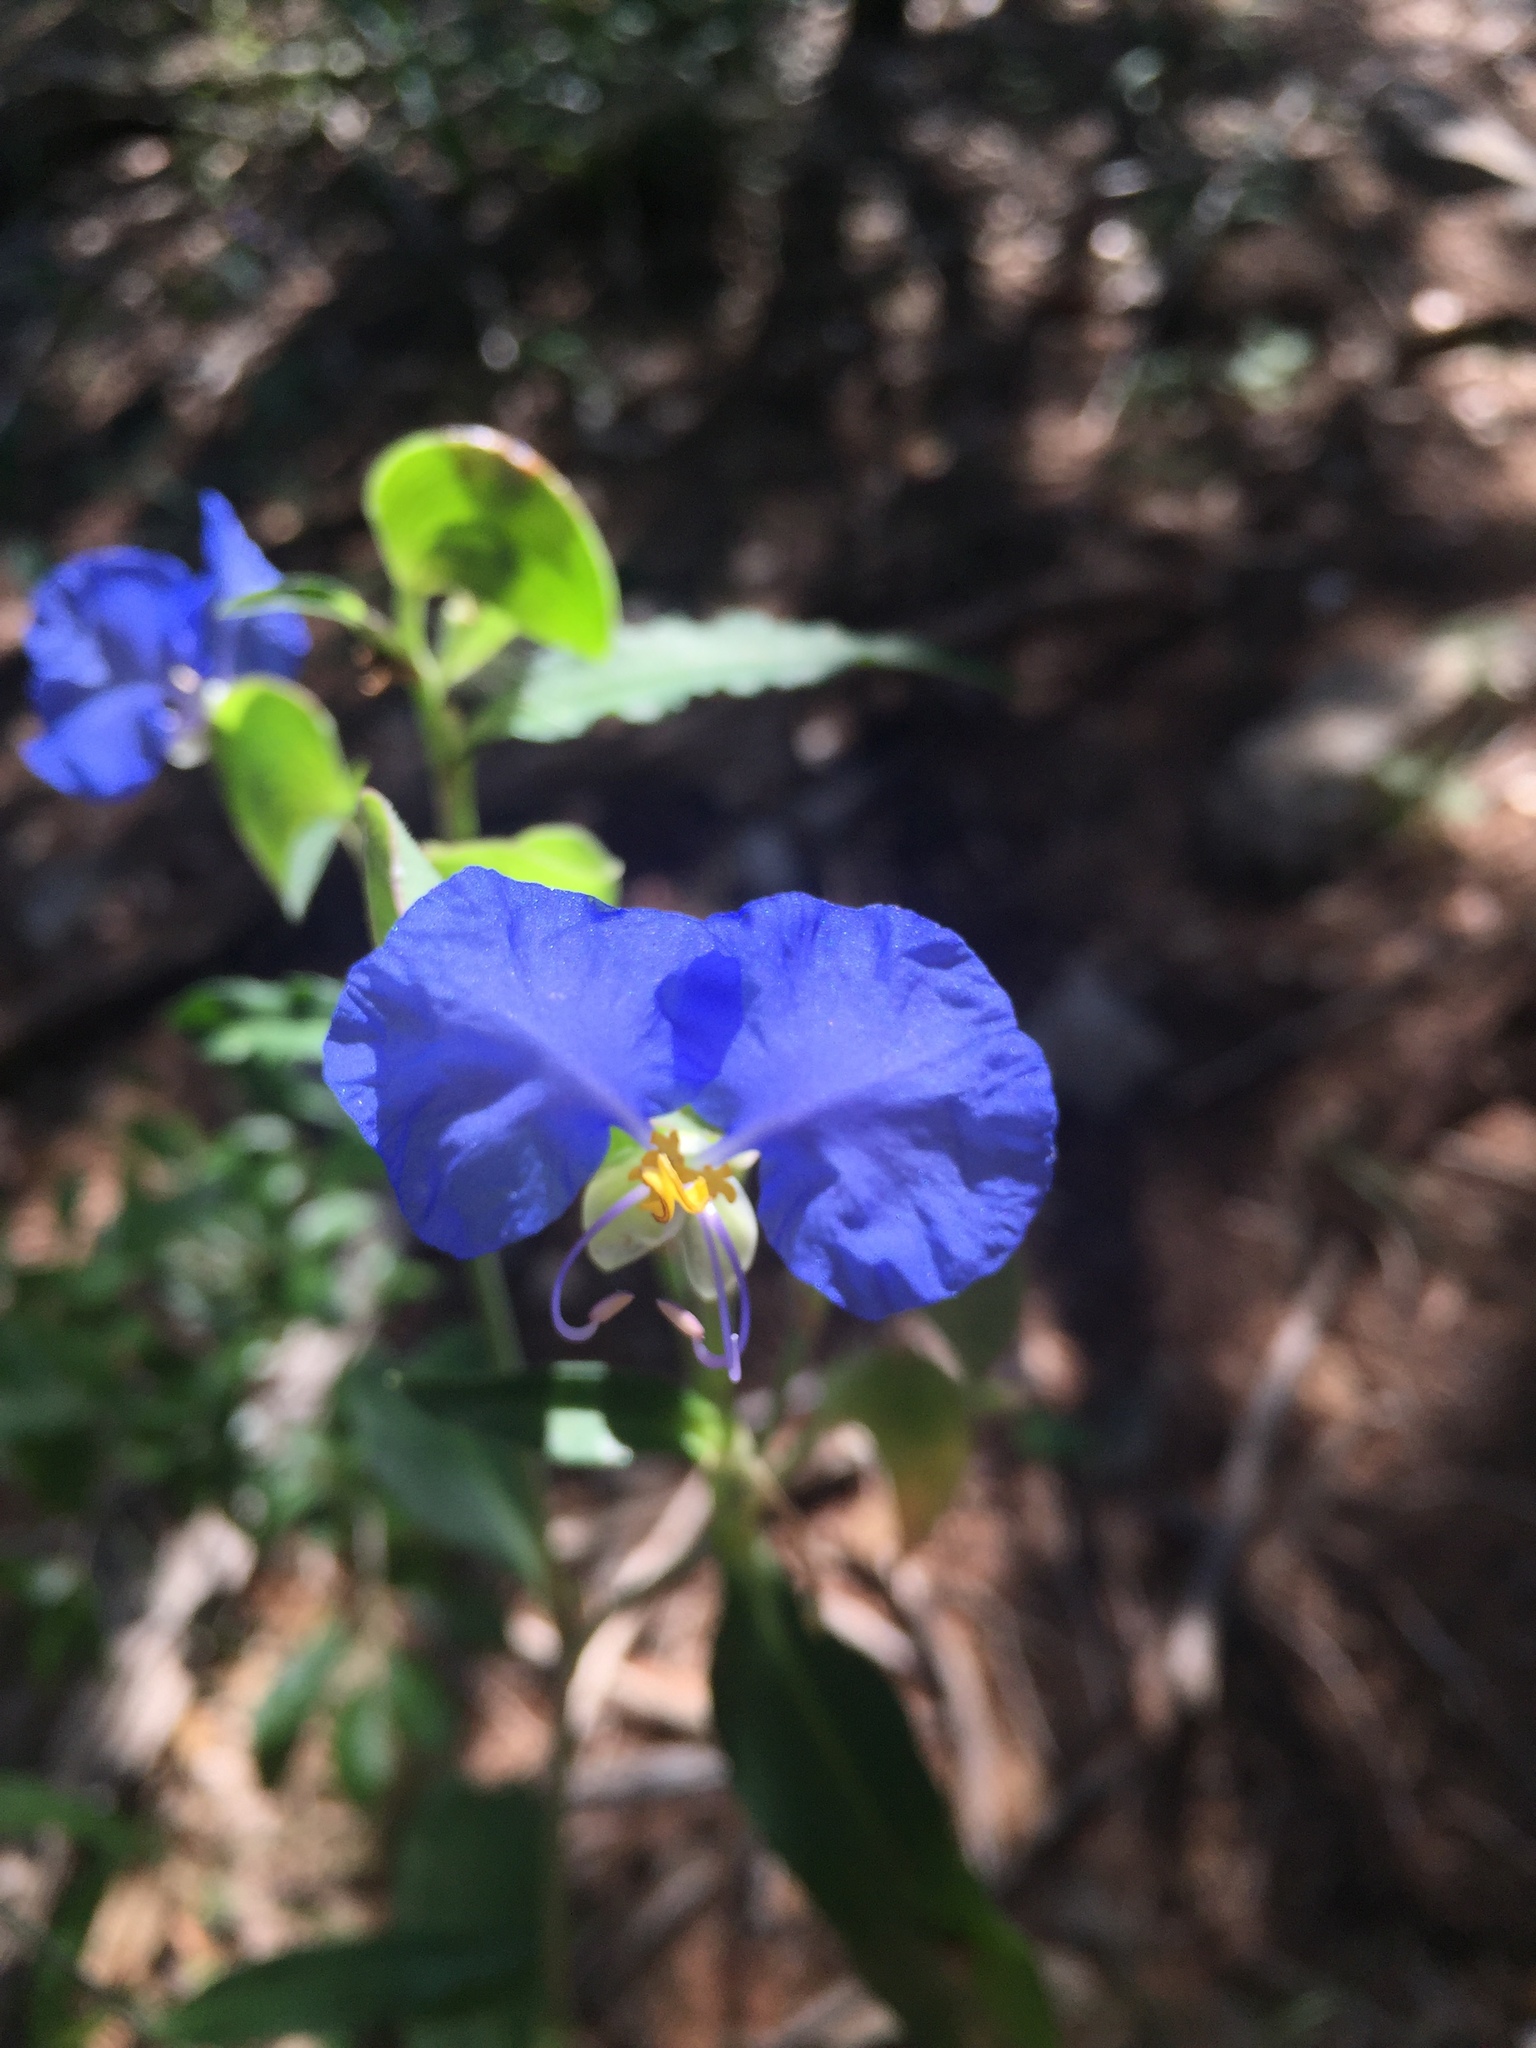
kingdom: Plantae
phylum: Tracheophyta
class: Liliopsida
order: Commelinales
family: Commelinaceae
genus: Commelina
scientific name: Commelina erecta
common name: Blousel blommetjie
